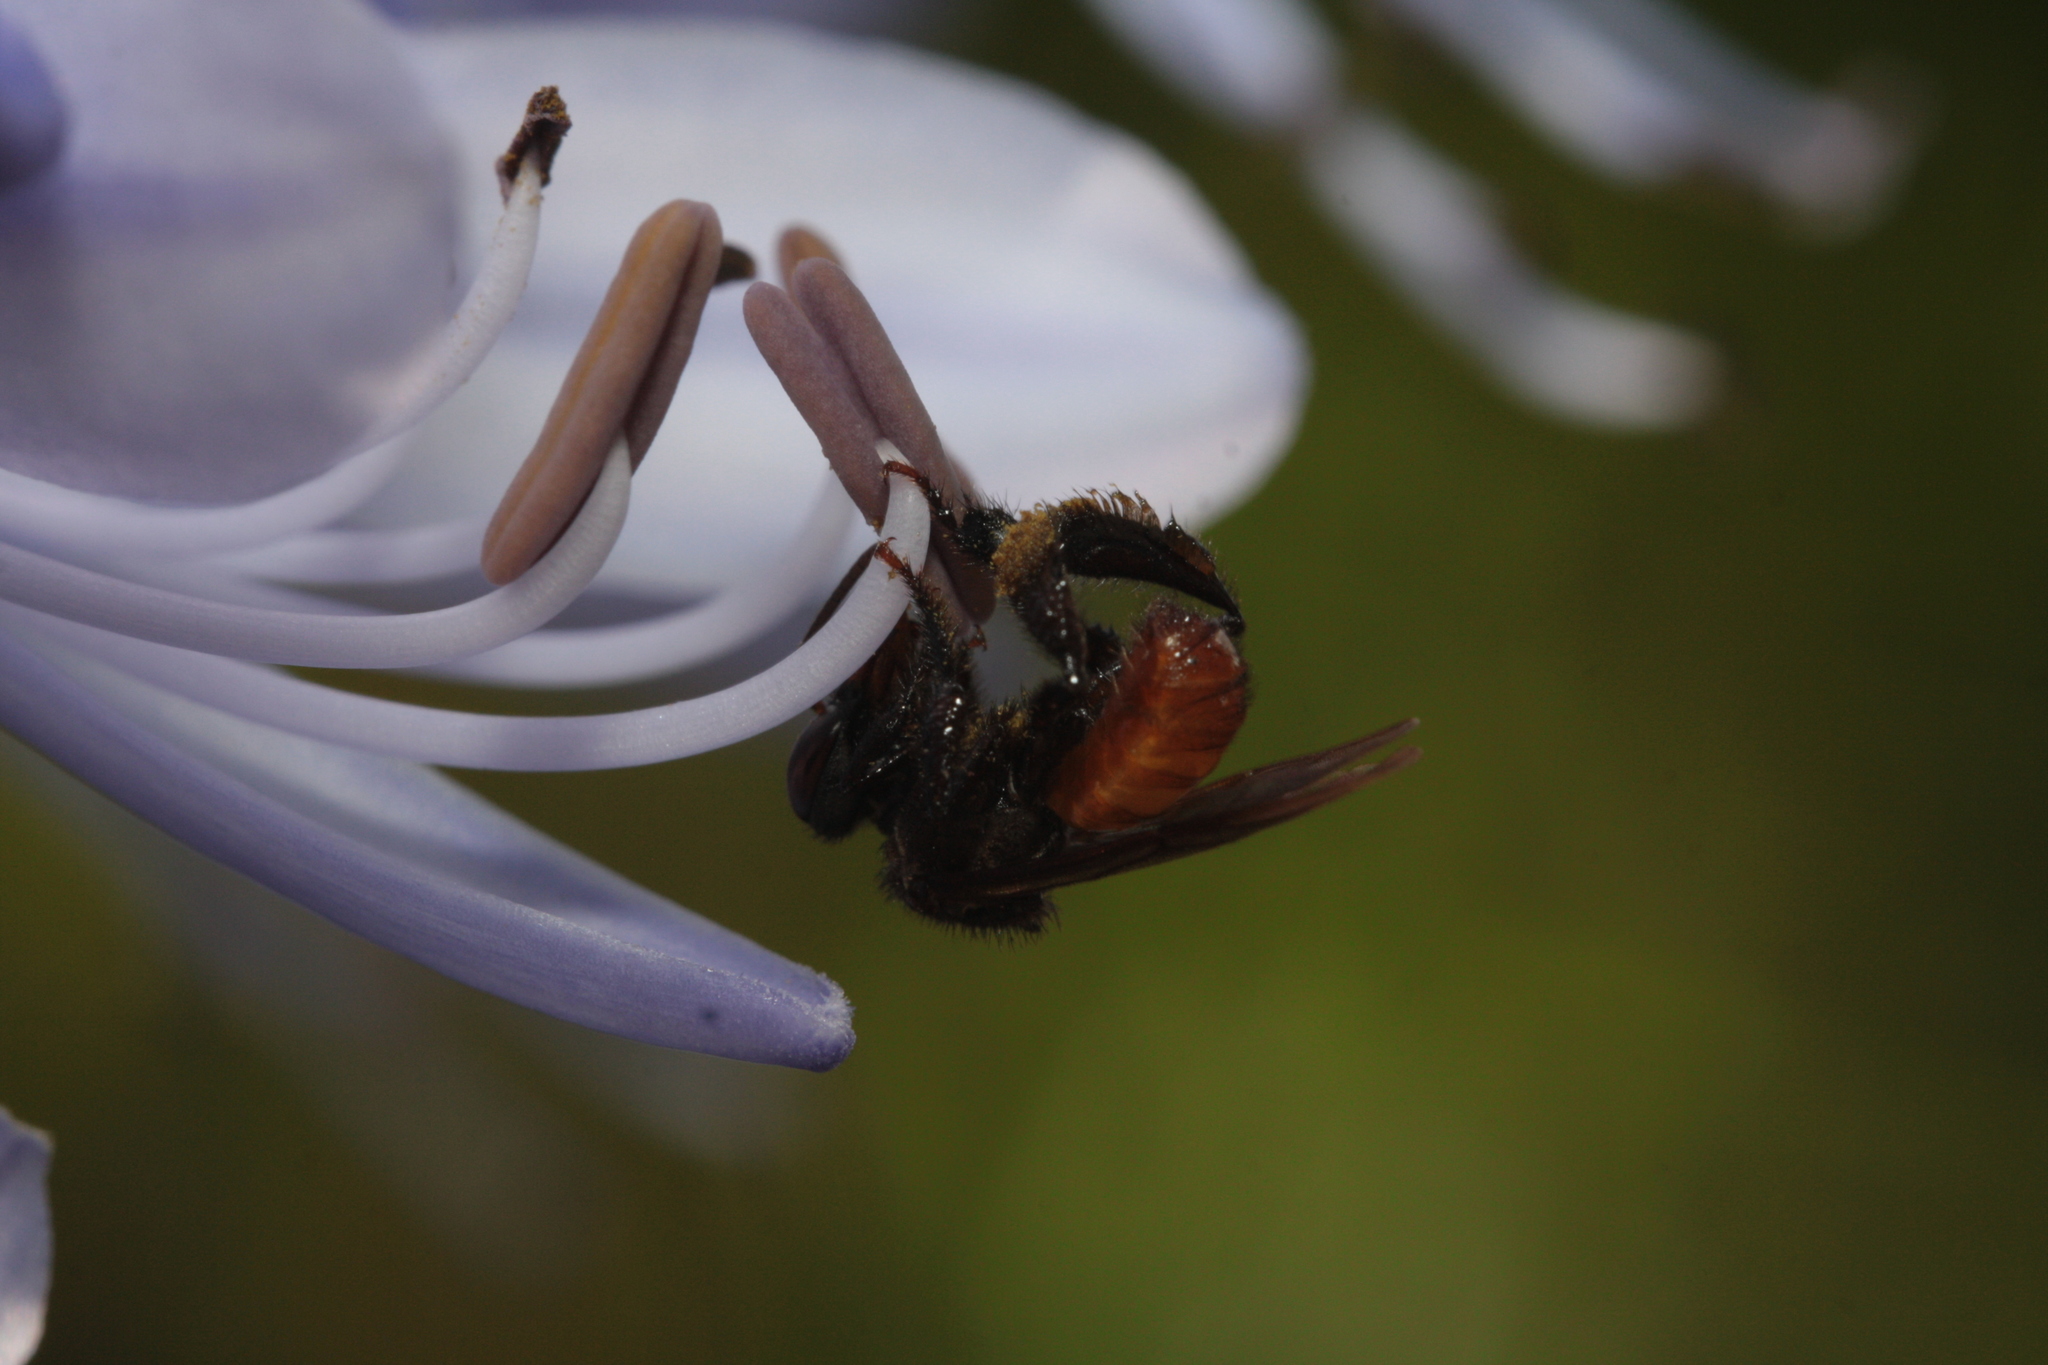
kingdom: Animalia
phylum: Arthropoda
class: Insecta
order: Hymenoptera
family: Apidae
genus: Trigona
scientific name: Trigona fulviventris
